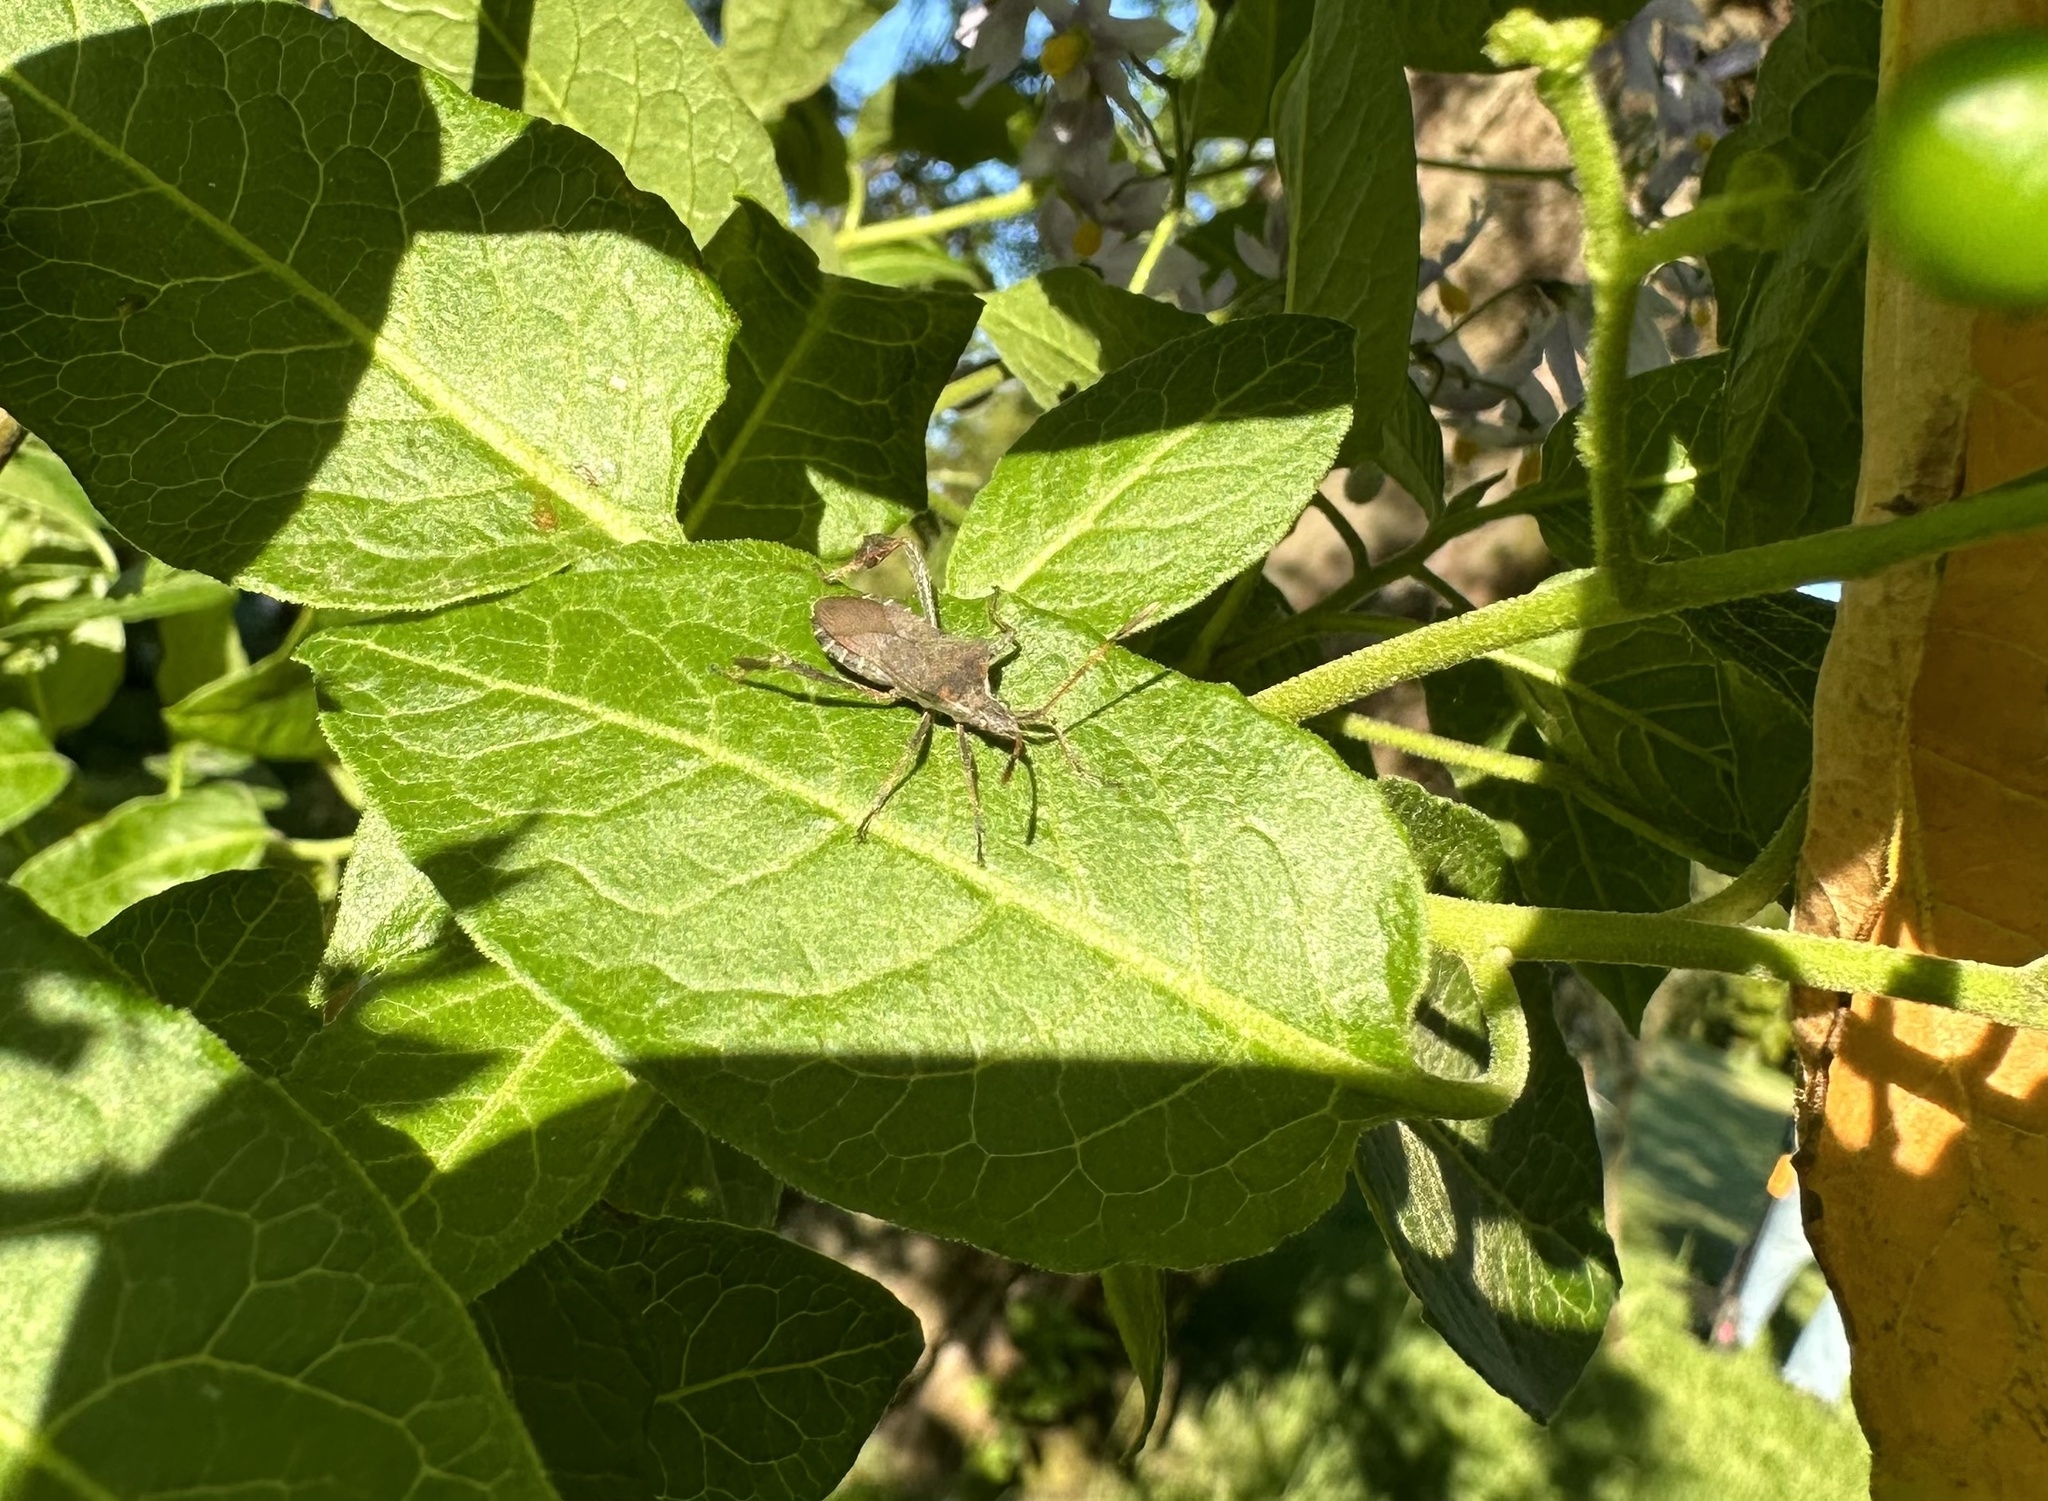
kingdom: Animalia
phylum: Arthropoda
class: Insecta
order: Hemiptera
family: Coreidae
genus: Leptoglossus
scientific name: Leptoglossus chilensis
